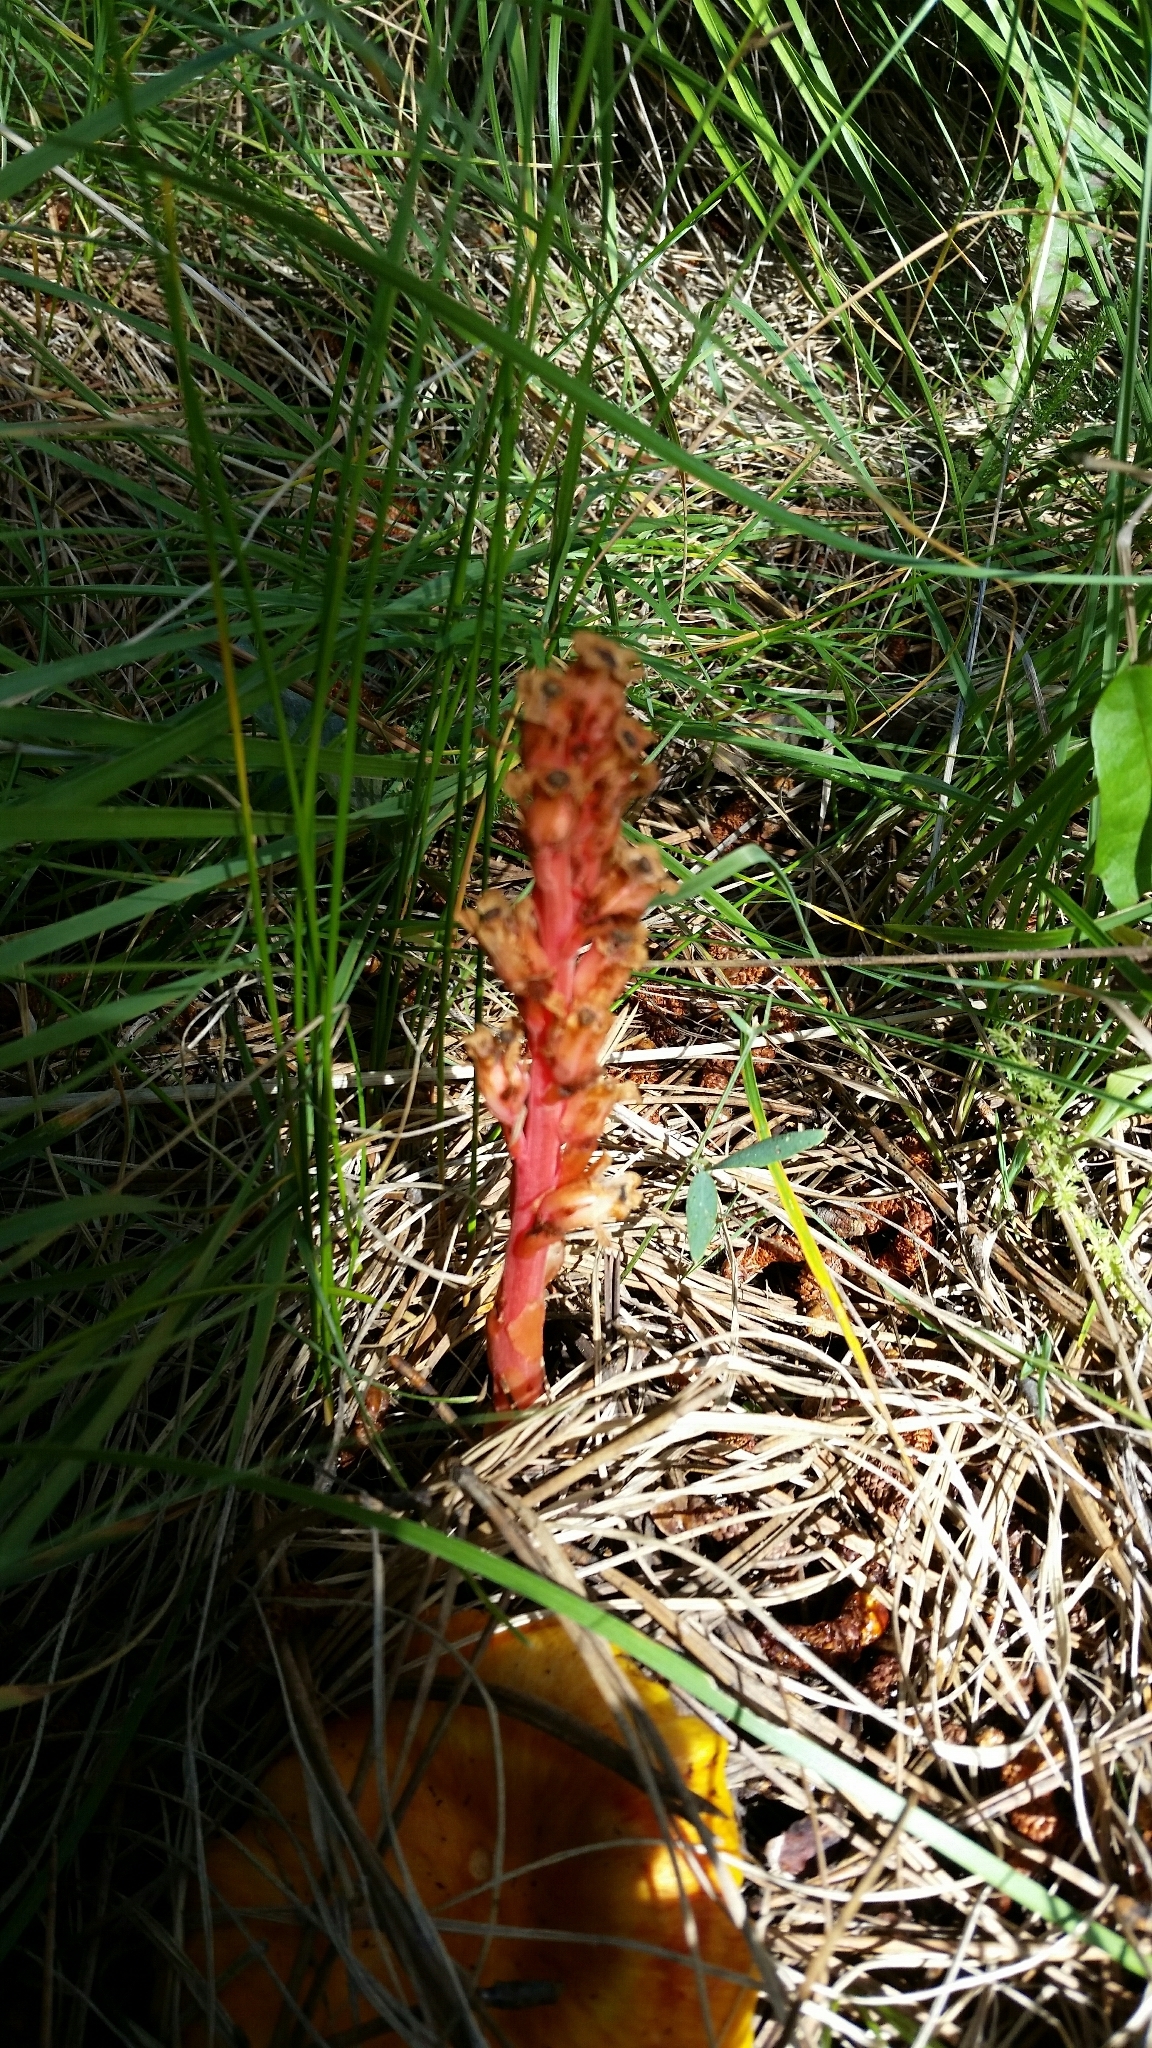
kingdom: Plantae
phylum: Tracheophyta
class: Magnoliopsida
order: Ericales
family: Ericaceae
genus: Hypopitys
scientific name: Hypopitys monotropa
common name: Yellow bird's-nest
